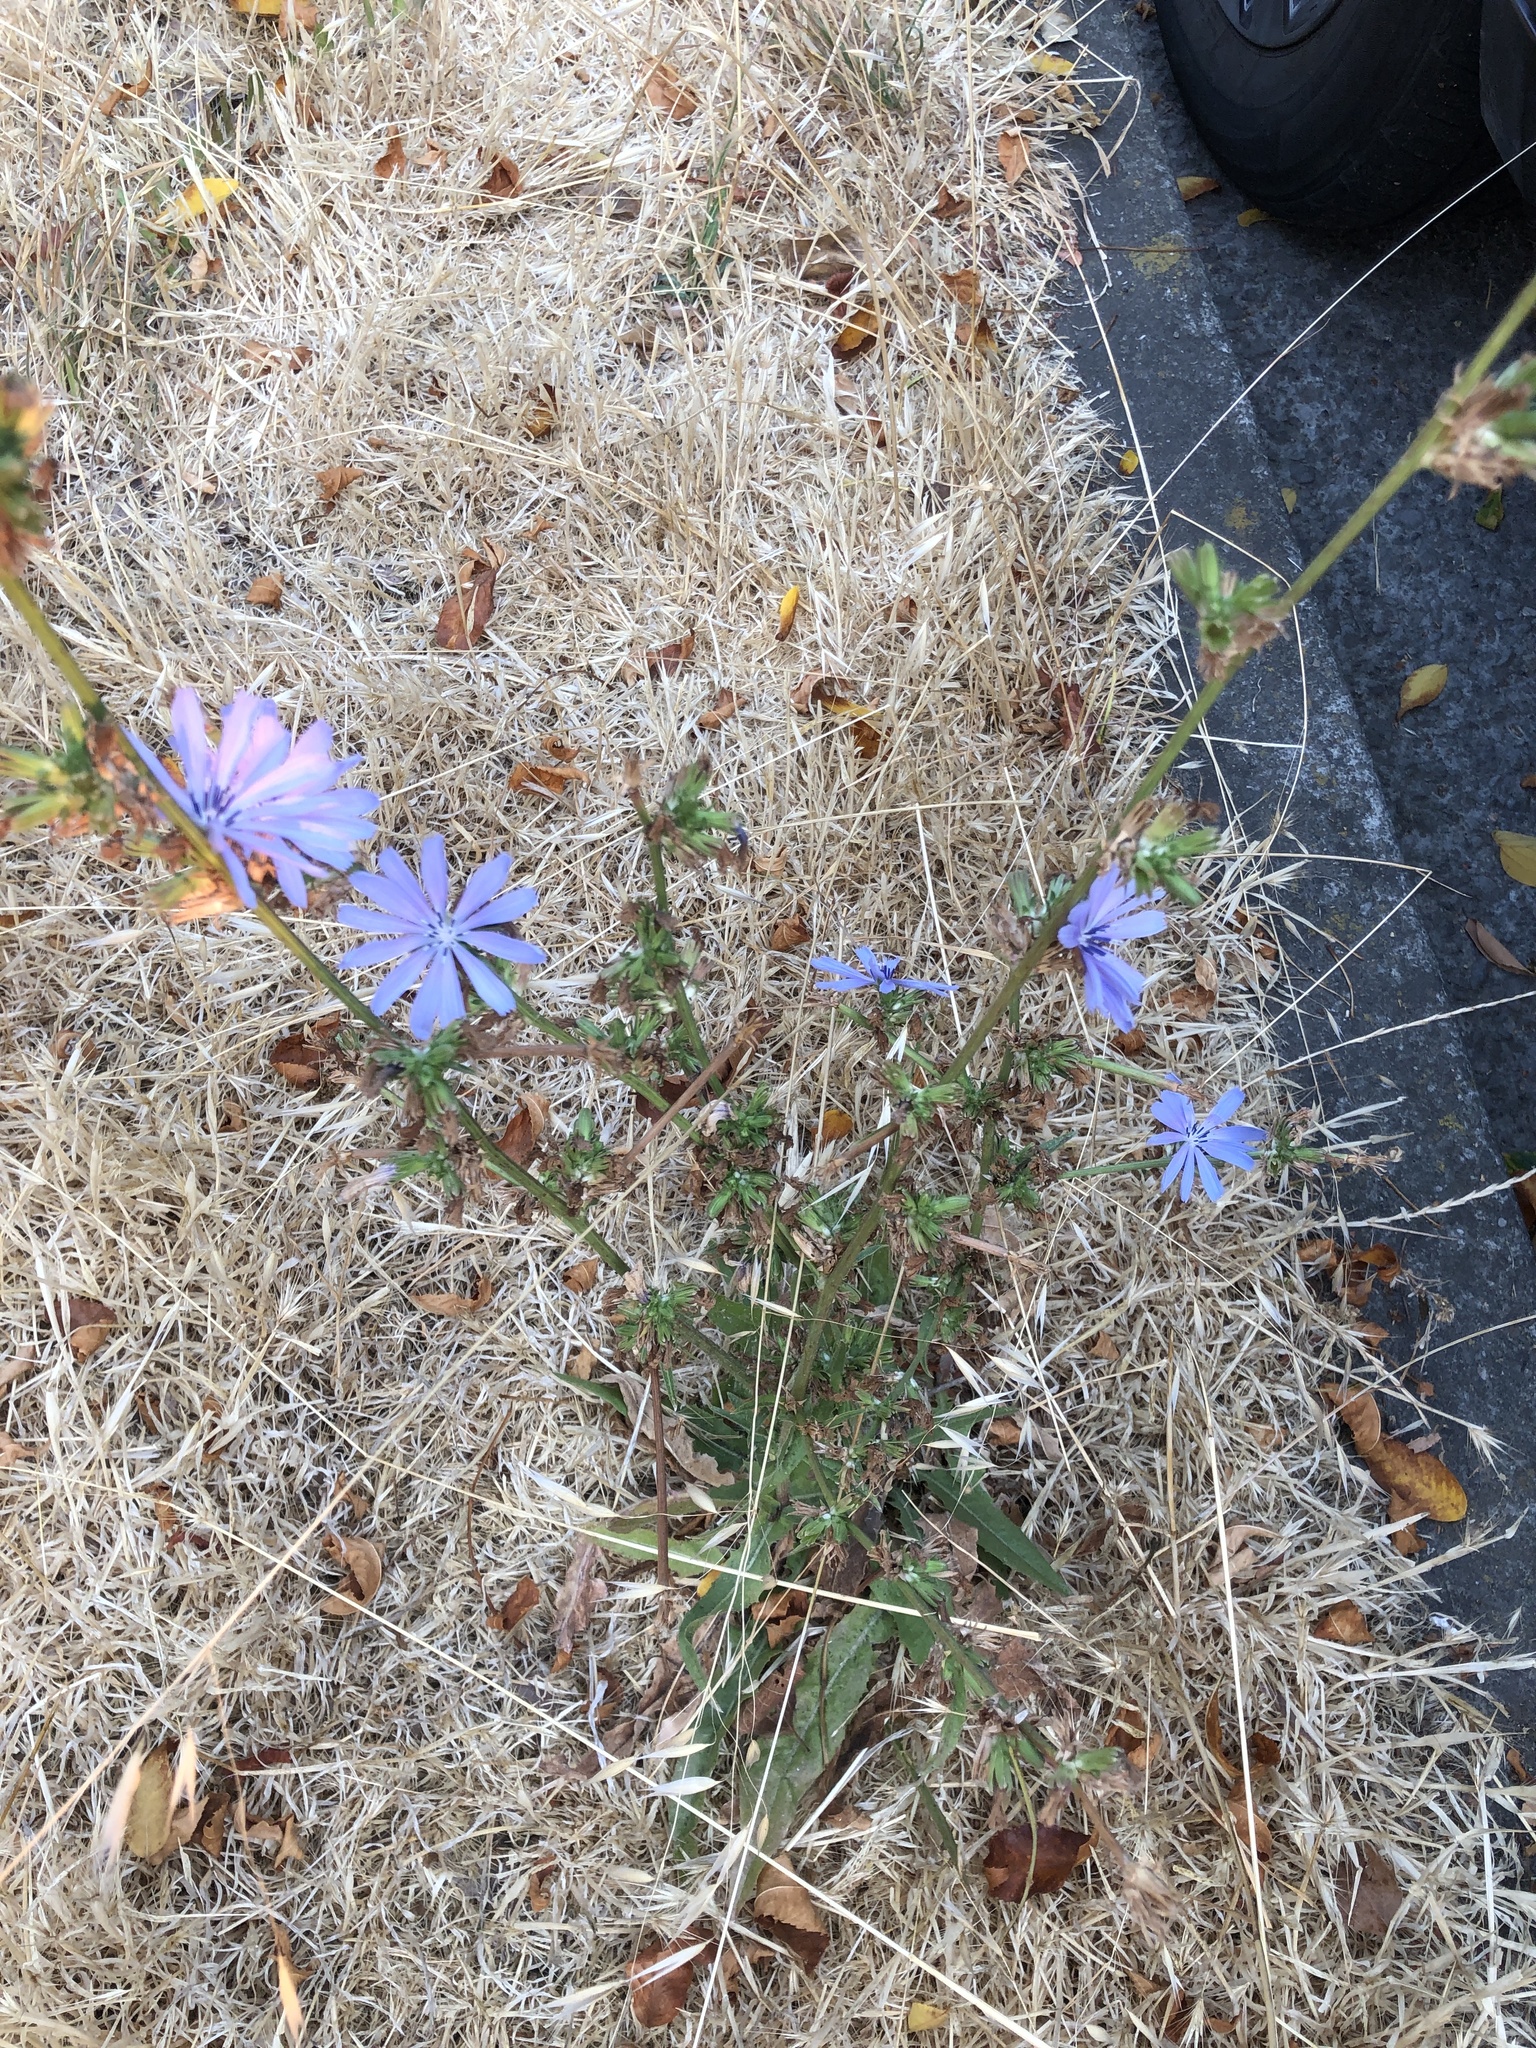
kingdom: Plantae
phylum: Tracheophyta
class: Magnoliopsida
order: Asterales
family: Asteraceae
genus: Cichorium
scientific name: Cichorium intybus
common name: Chicory
